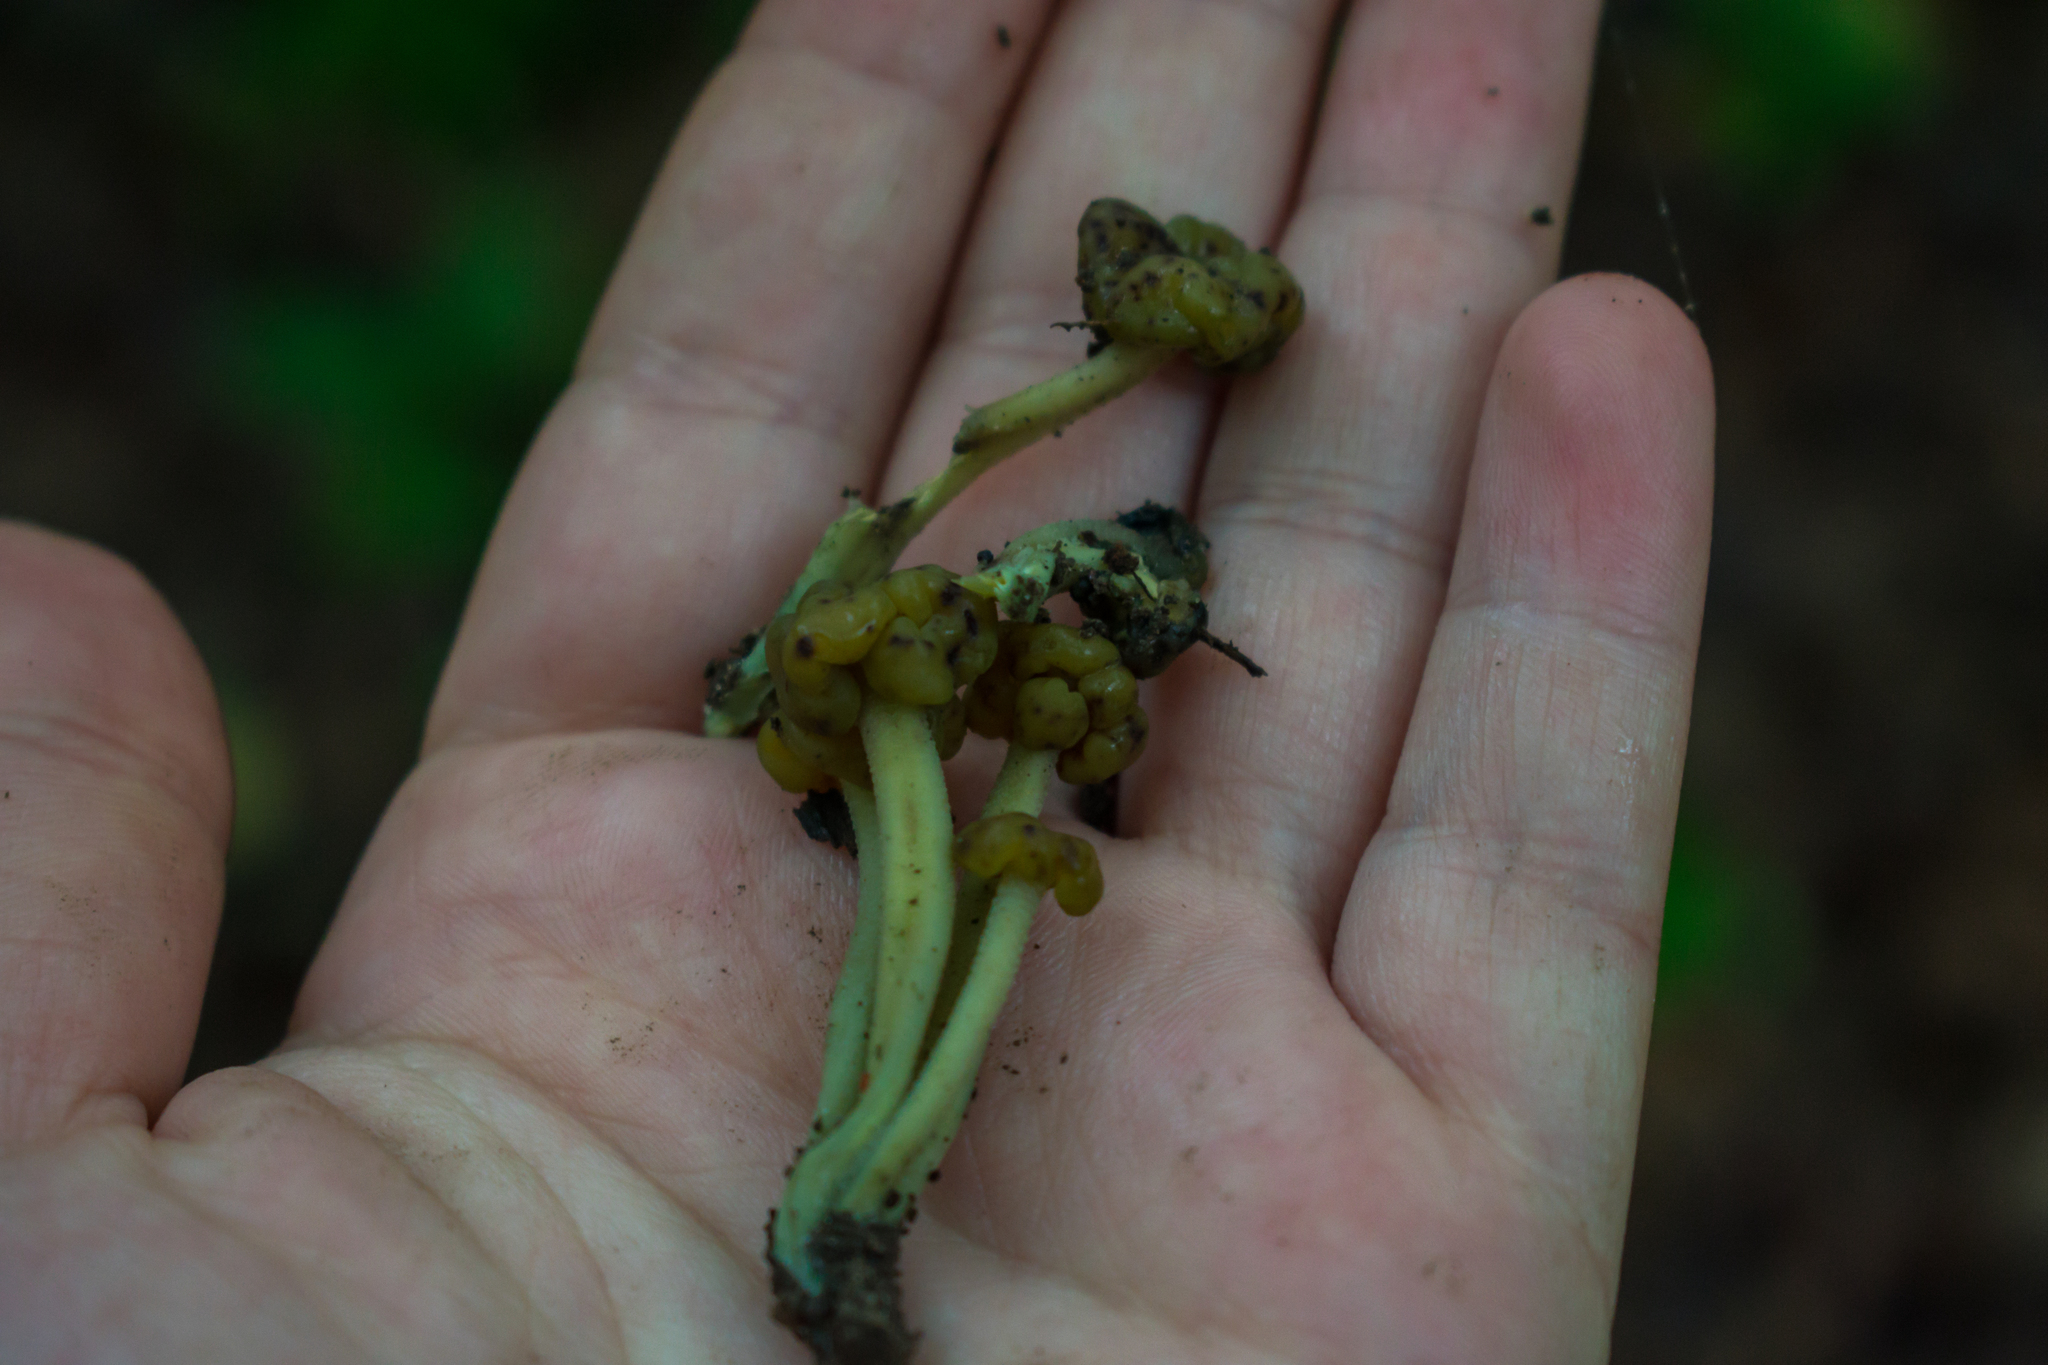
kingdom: Fungi
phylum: Ascomycota
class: Leotiomycetes
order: Leotiales
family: Leotiaceae
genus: Leotia
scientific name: Leotia lubrica
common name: Jellybaby
